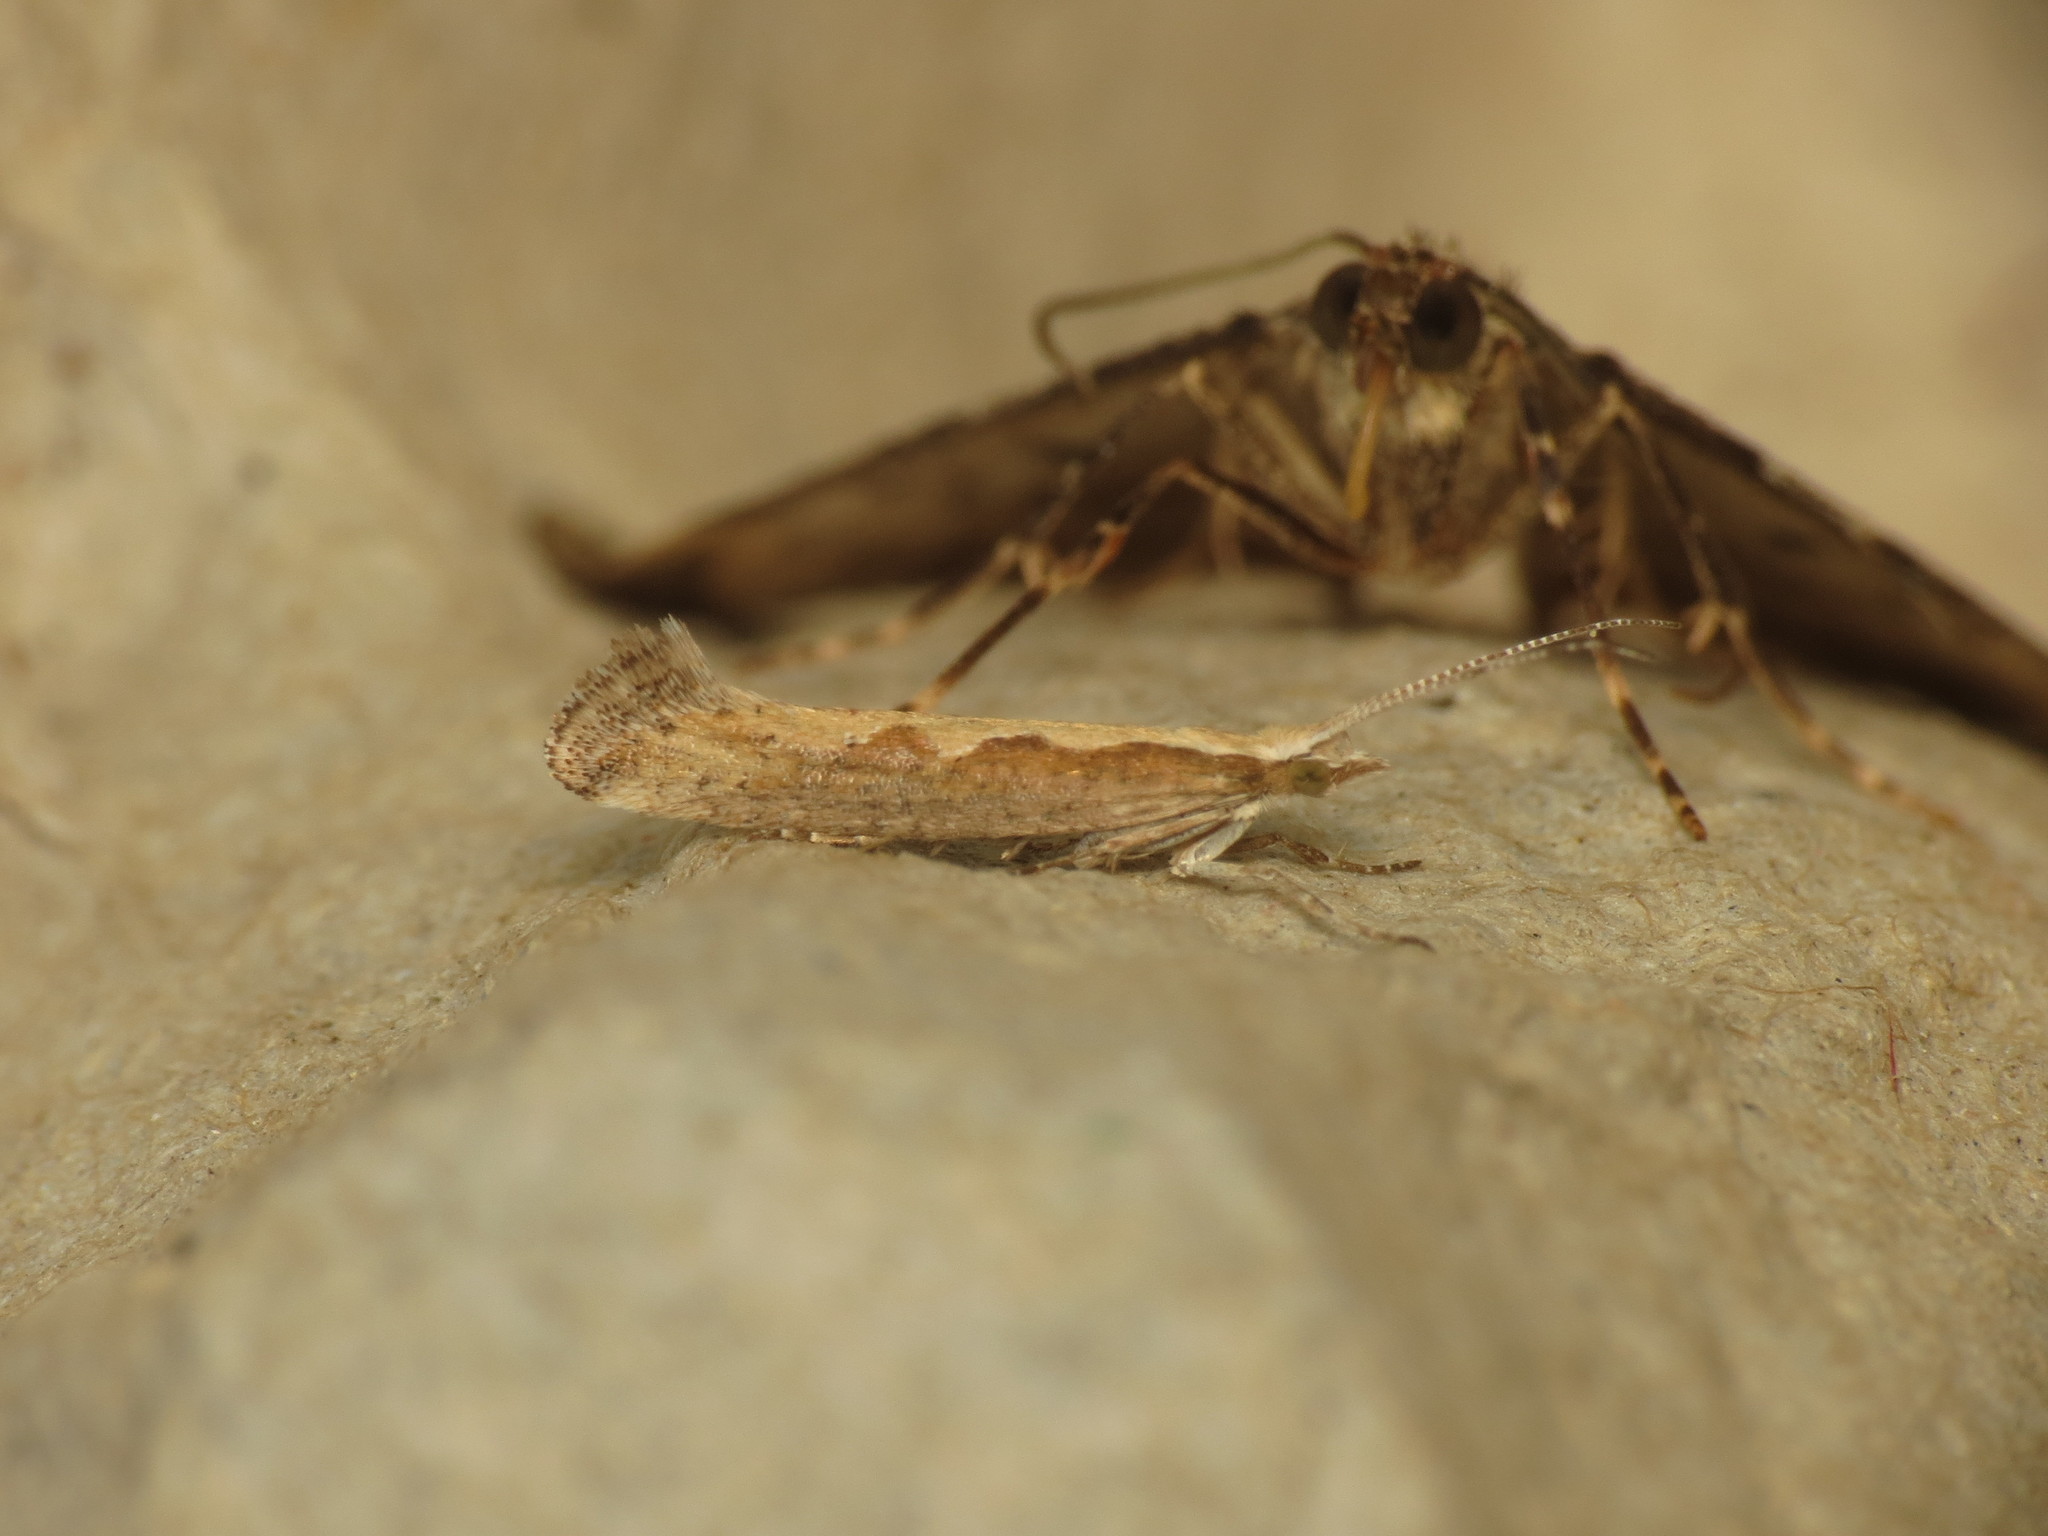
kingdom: Animalia
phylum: Arthropoda
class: Insecta
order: Lepidoptera
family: Plutellidae
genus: Plutella
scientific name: Plutella xylostella
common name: Diamond-back moth
